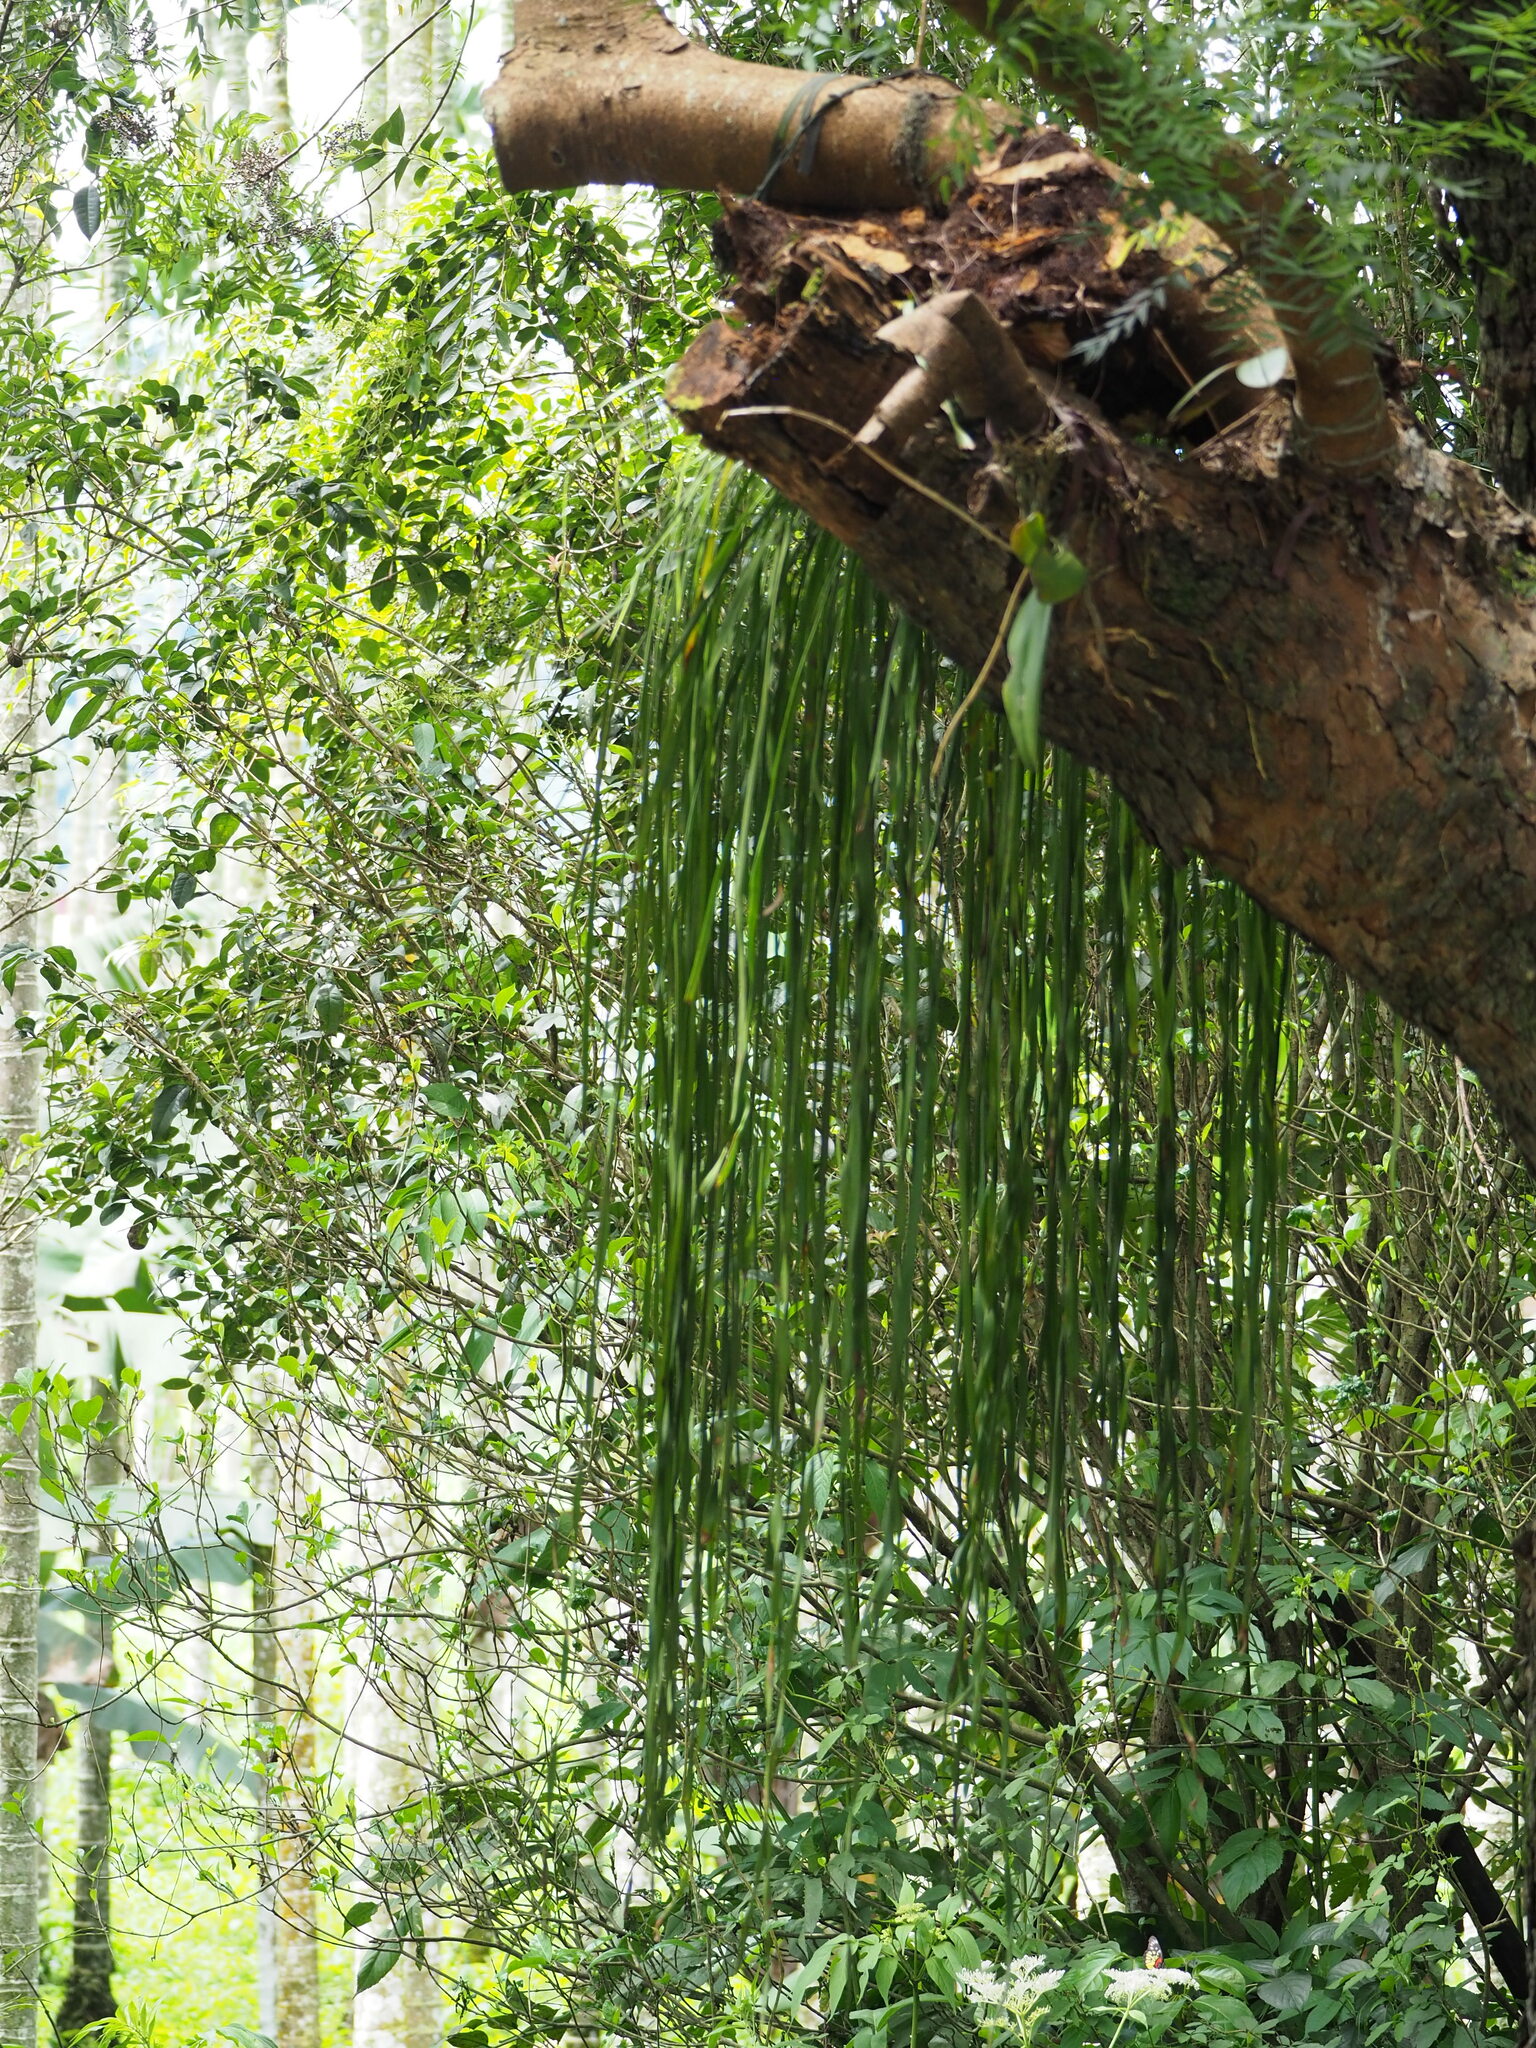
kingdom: Plantae
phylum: Tracheophyta
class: Polypodiopsida
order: Polypodiales
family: Pteridaceae
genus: Haplopteris
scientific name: Haplopteris elongata
